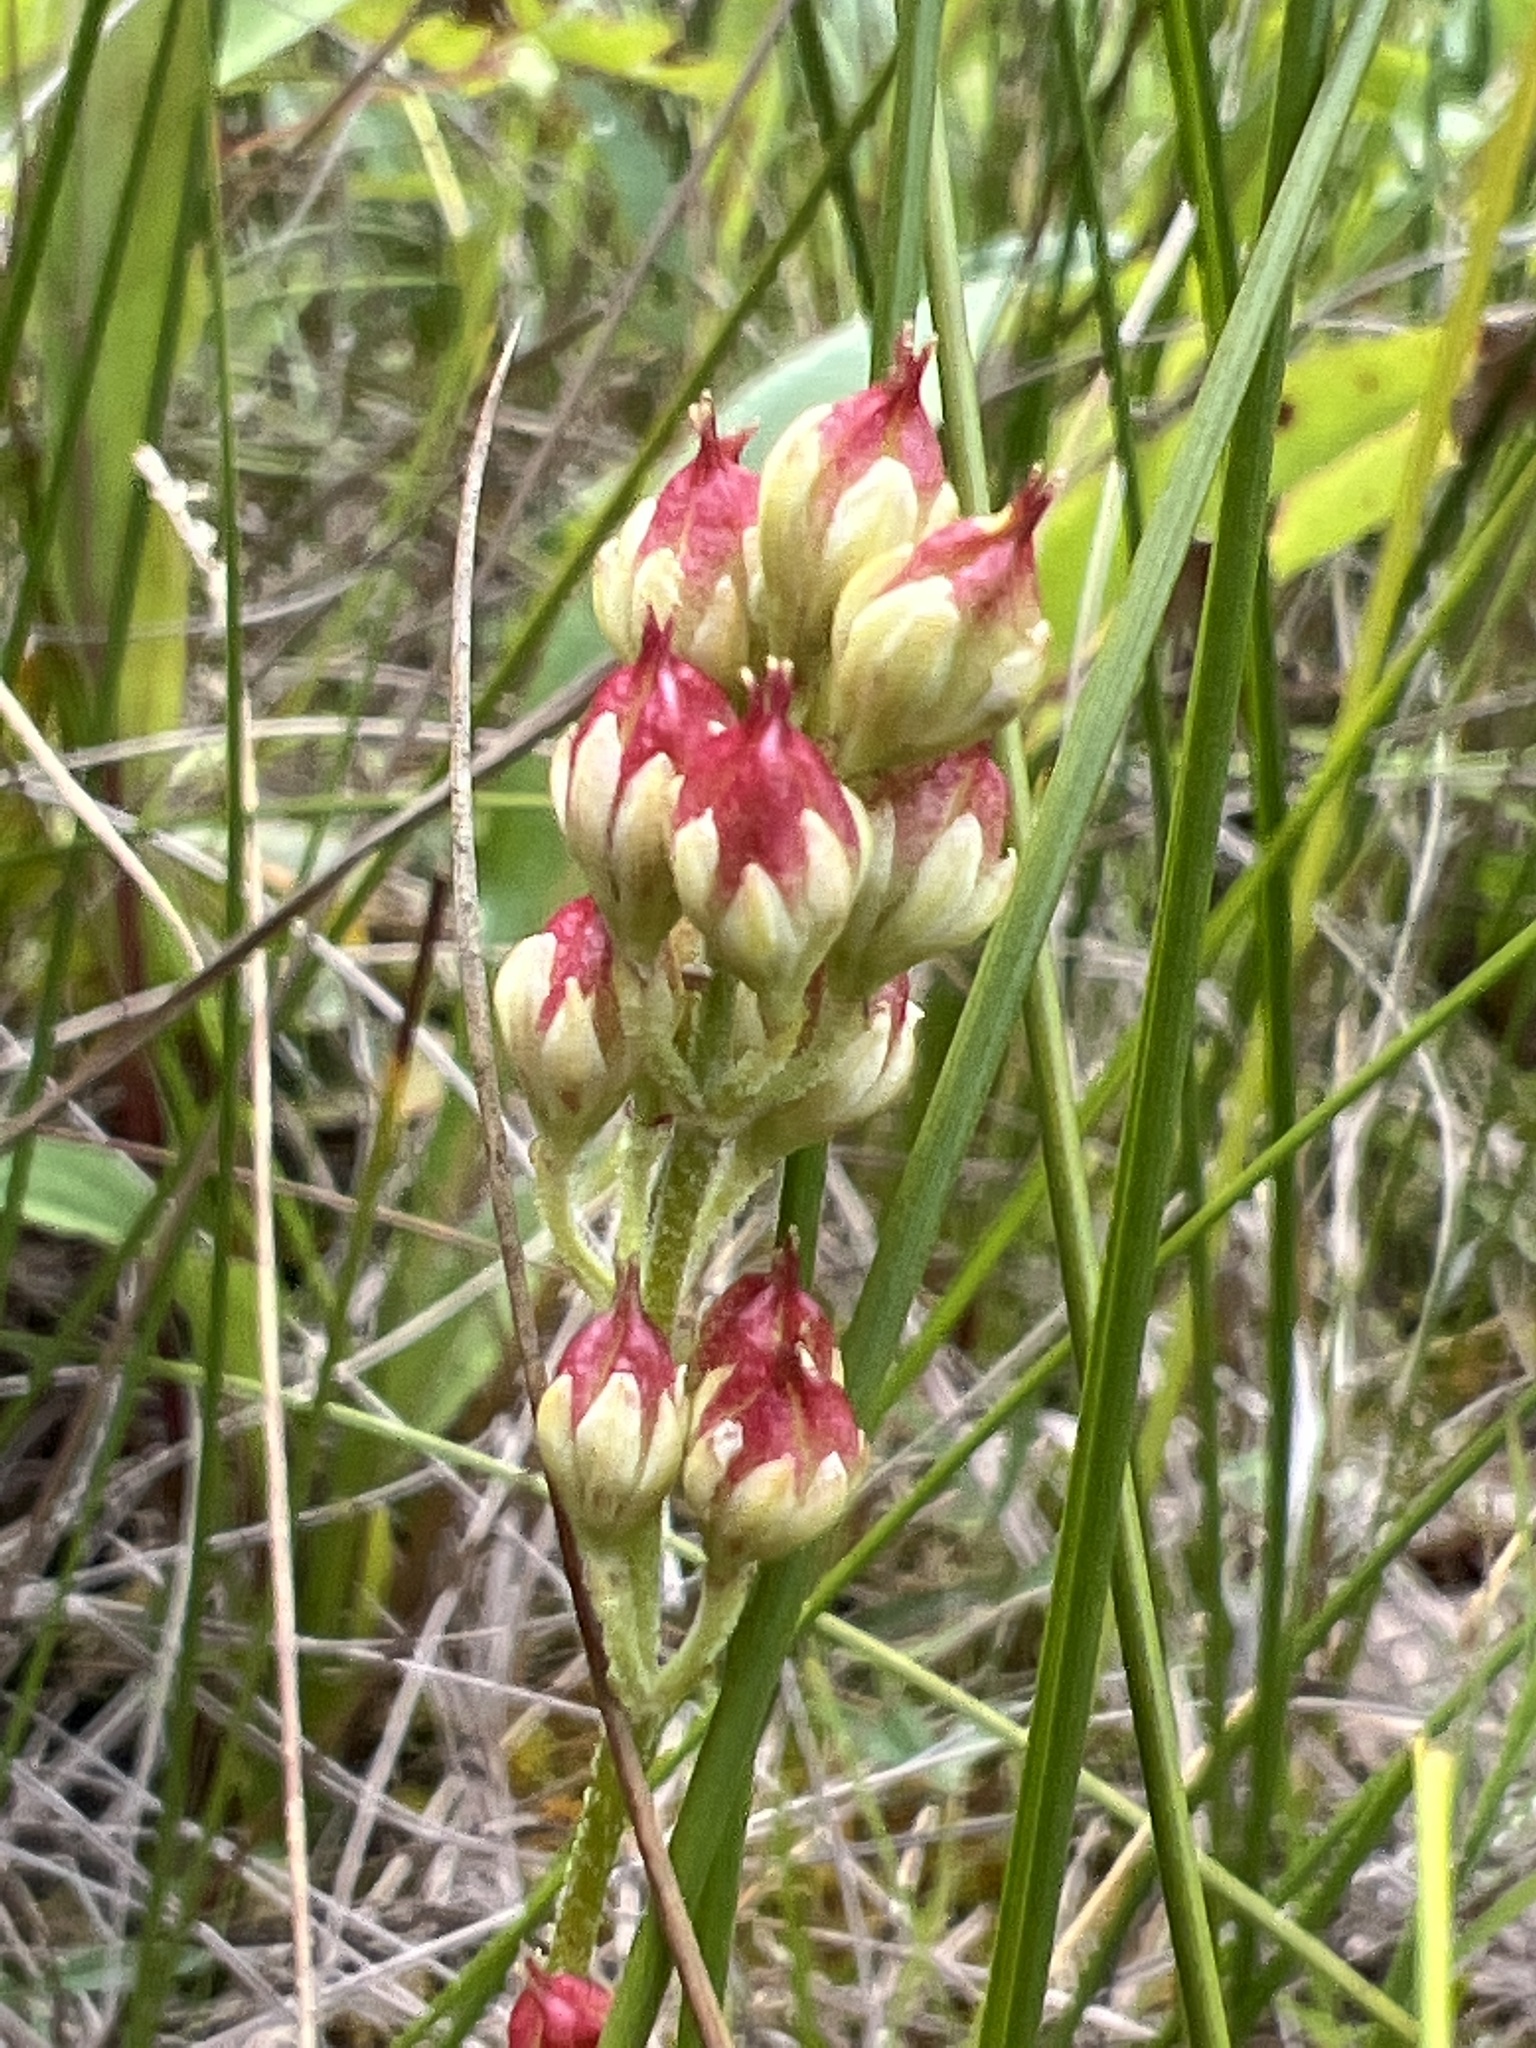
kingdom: Plantae
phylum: Tracheophyta
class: Liliopsida
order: Alismatales
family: Tofieldiaceae
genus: Triantha
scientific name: Triantha glutinosa
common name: Glutinous tofieldia
